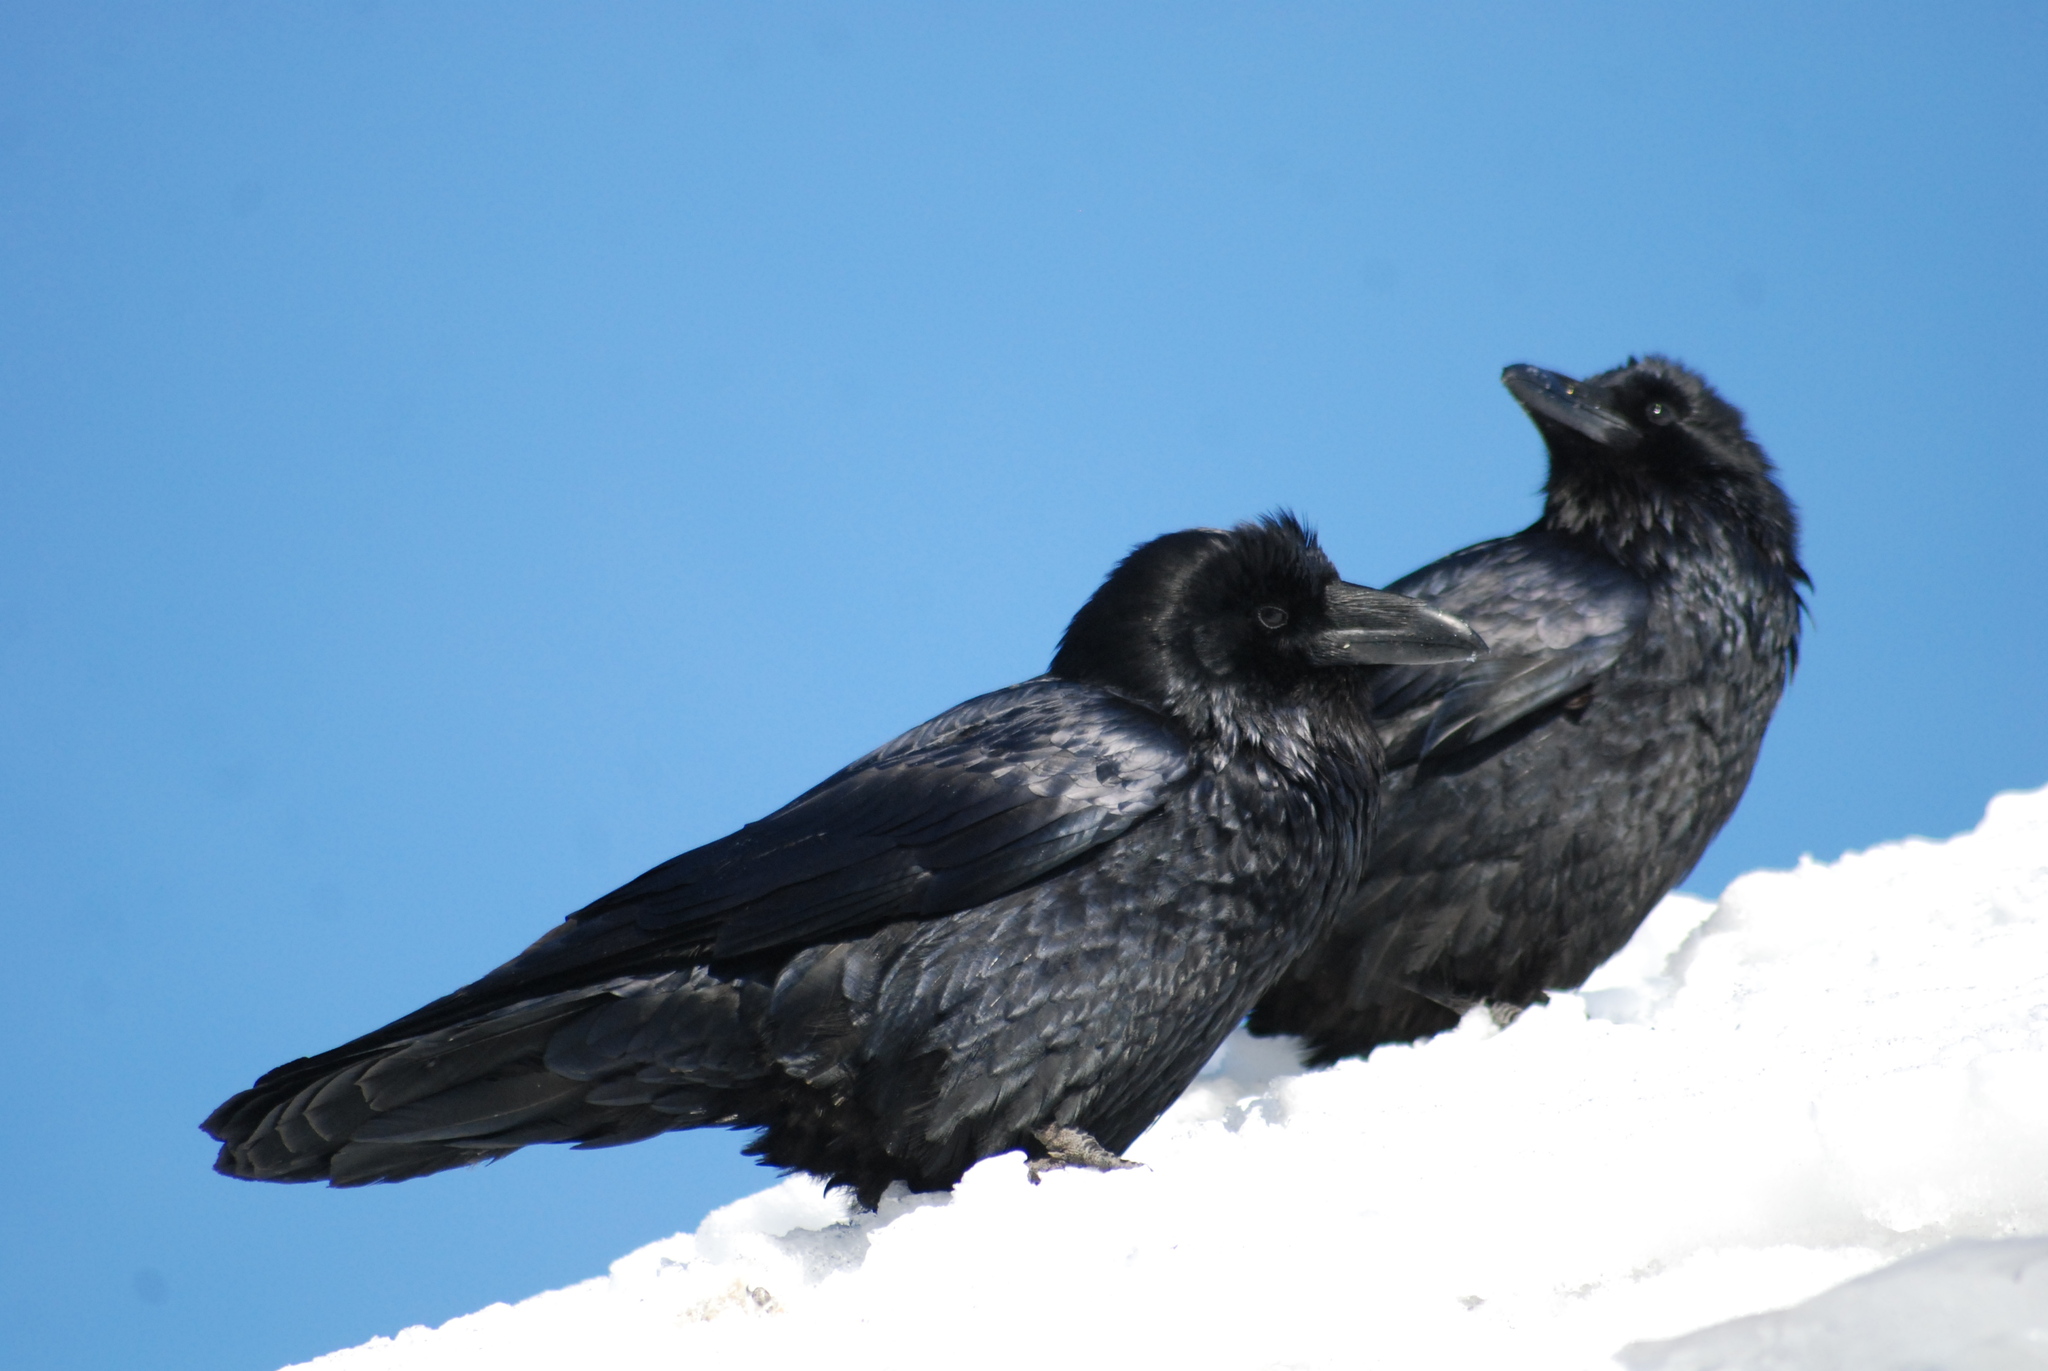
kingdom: Animalia
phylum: Chordata
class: Aves
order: Passeriformes
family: Corvidae
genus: Corvus
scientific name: Corvus corax
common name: Common raven
